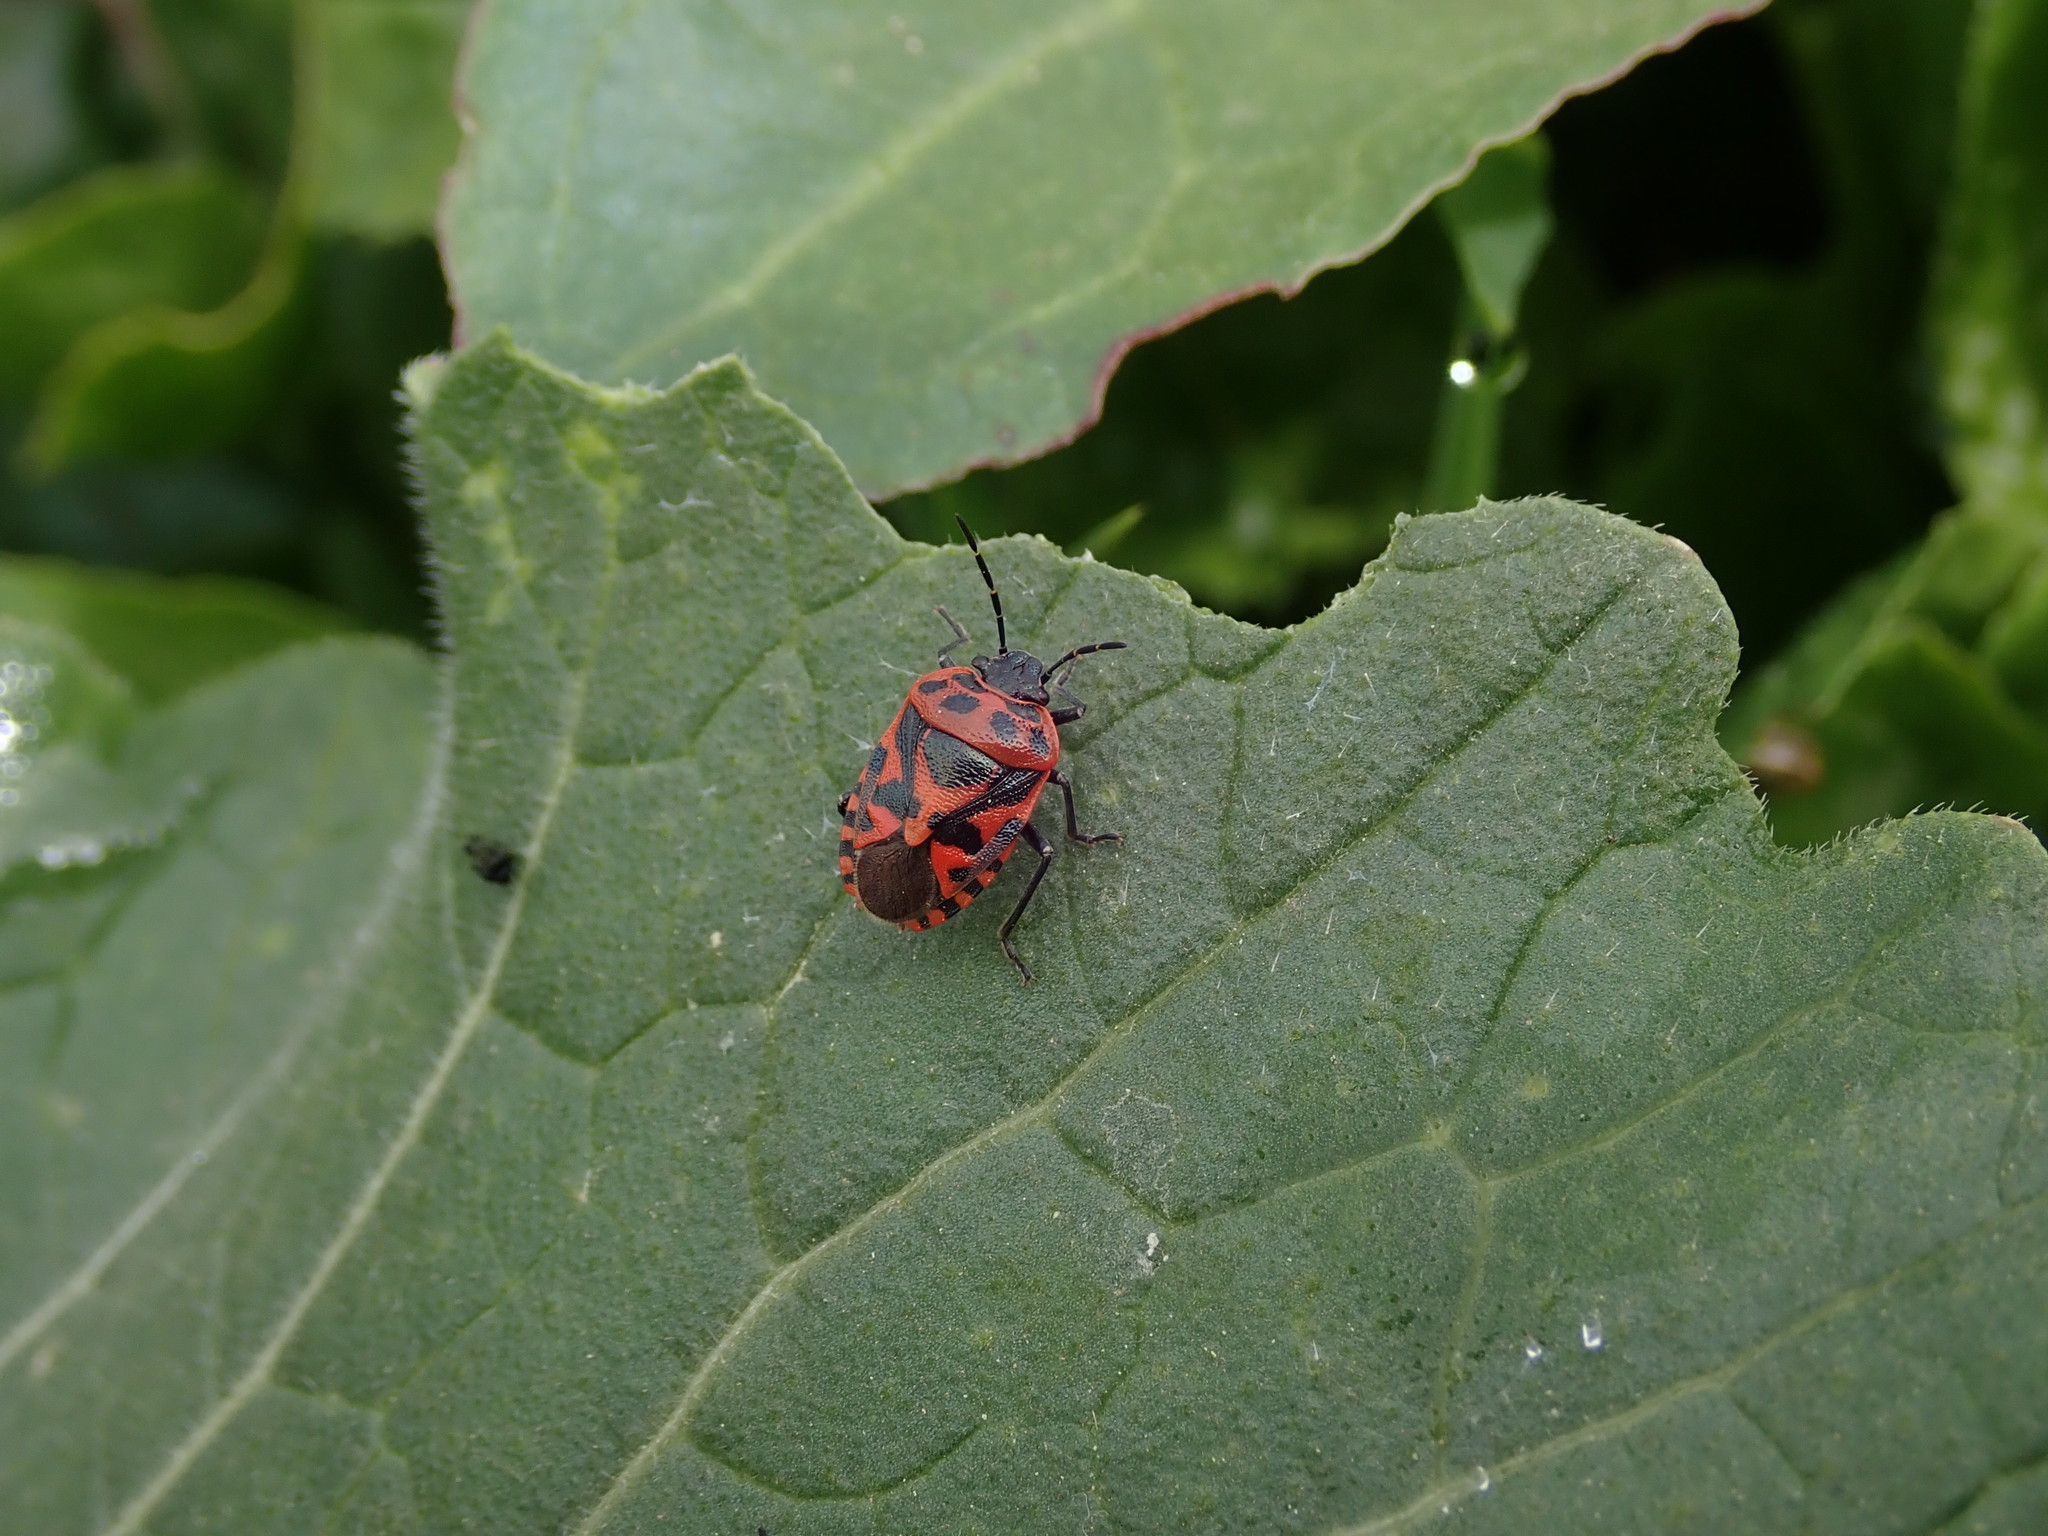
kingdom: Animalia
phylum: Arthropoda
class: Insecta
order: Hemiptera
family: Pentatomidae
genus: Eurydema
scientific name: Eurydema ornata
